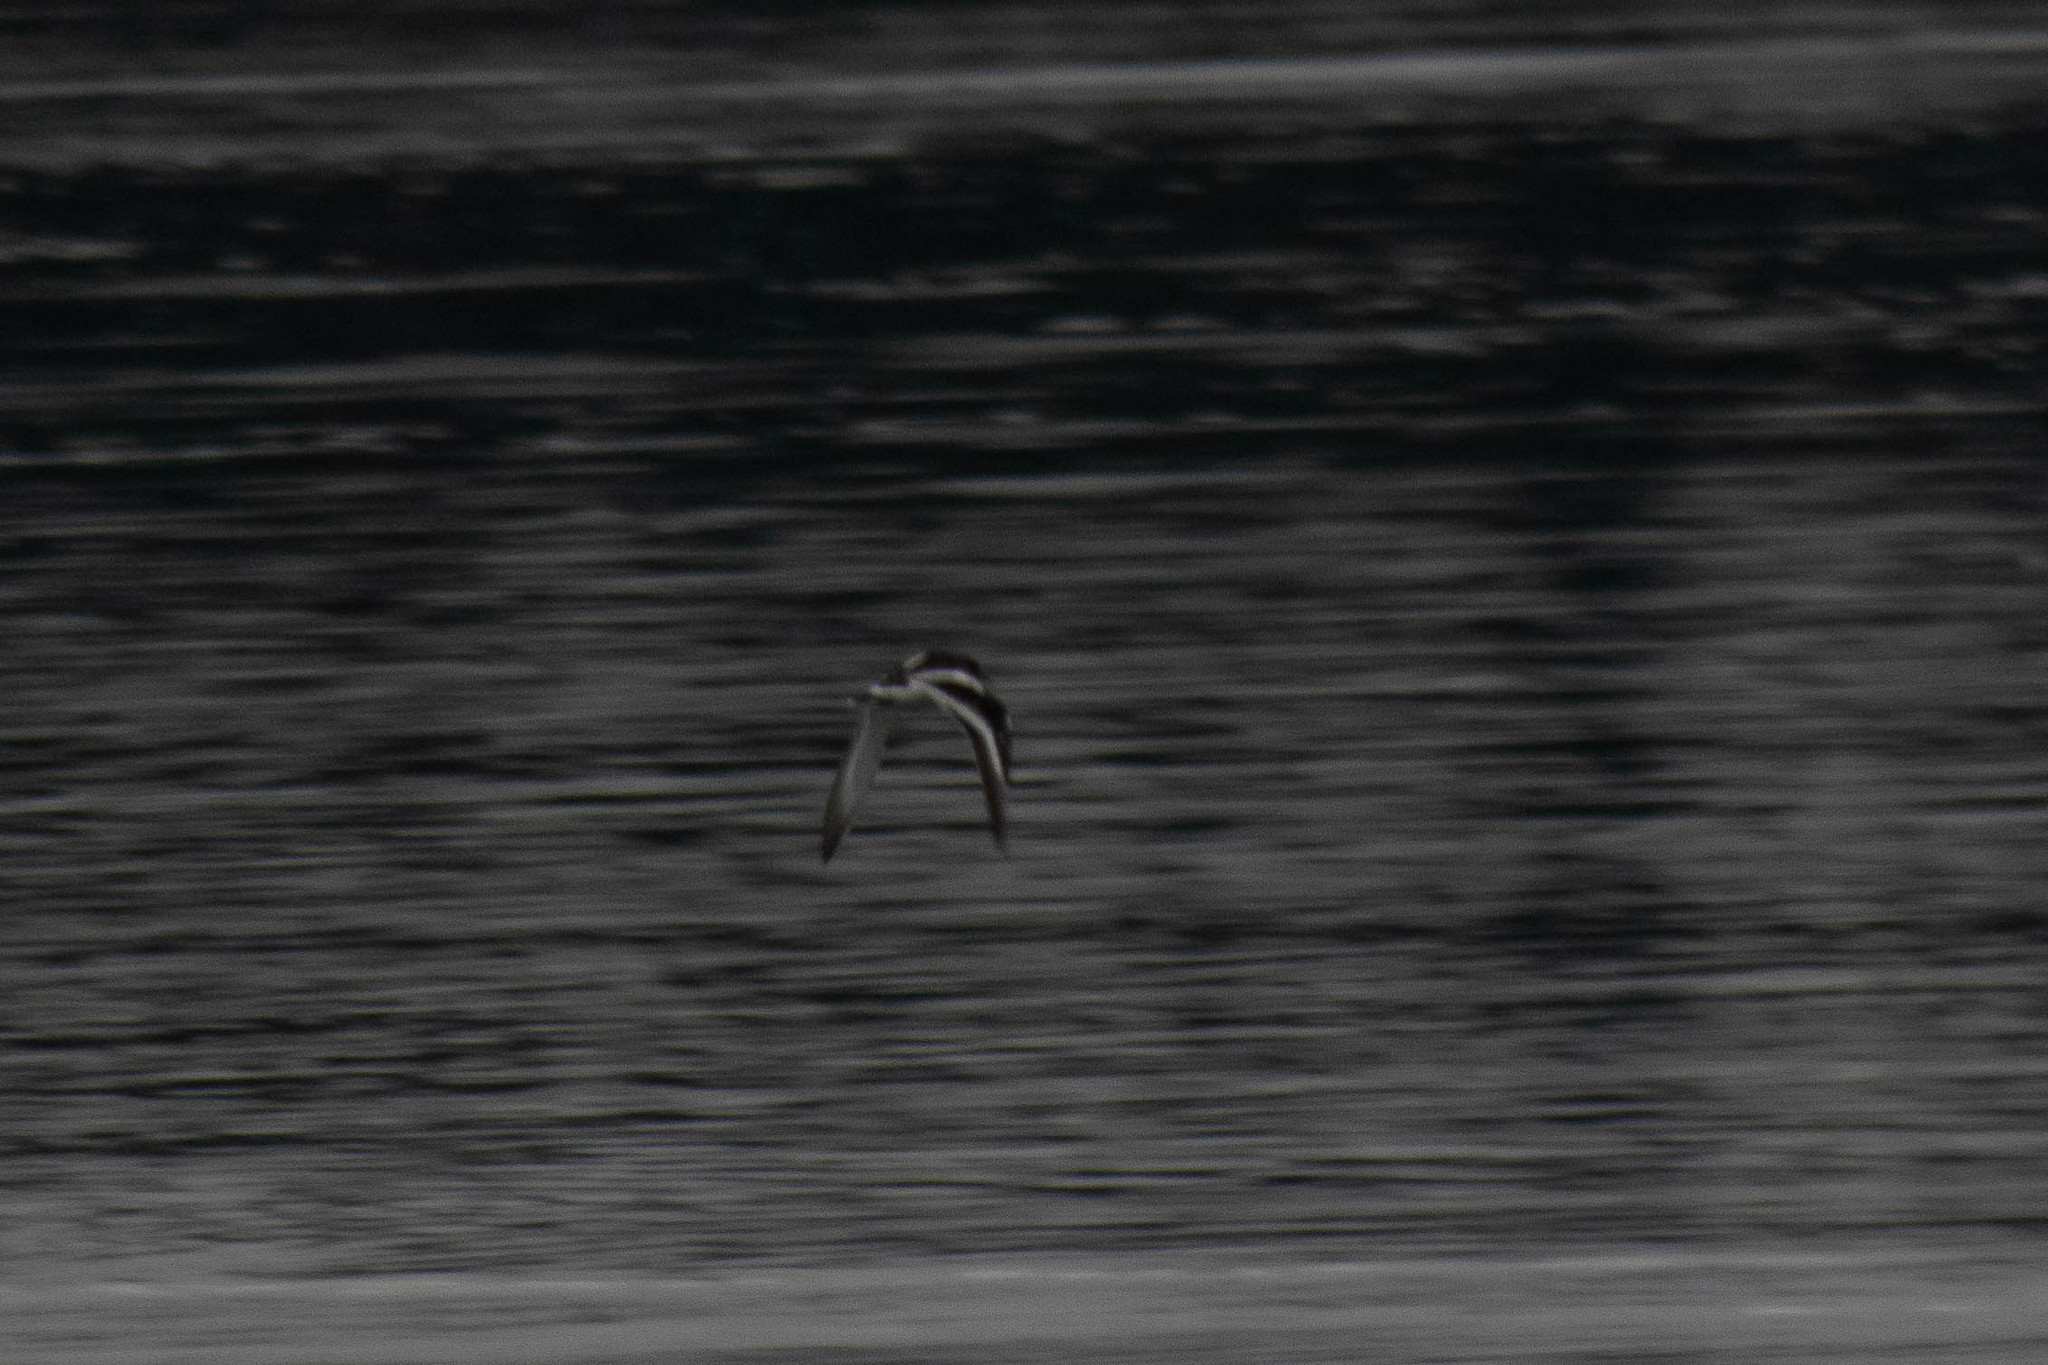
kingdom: Animalia
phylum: Chordata
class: Aves
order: Charadriiformes
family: Scolopacidae
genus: Arenaria
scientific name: Arenaria melanocephala
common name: Black turnstone
